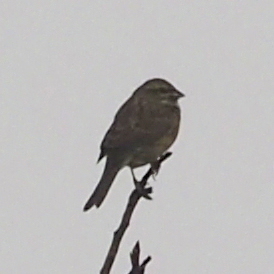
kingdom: Animalia
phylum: Chordata
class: Aves
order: Passeriformes
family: Emberizidae
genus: Emberiza
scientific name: Emberiza cirlus
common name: Cirl bunting
